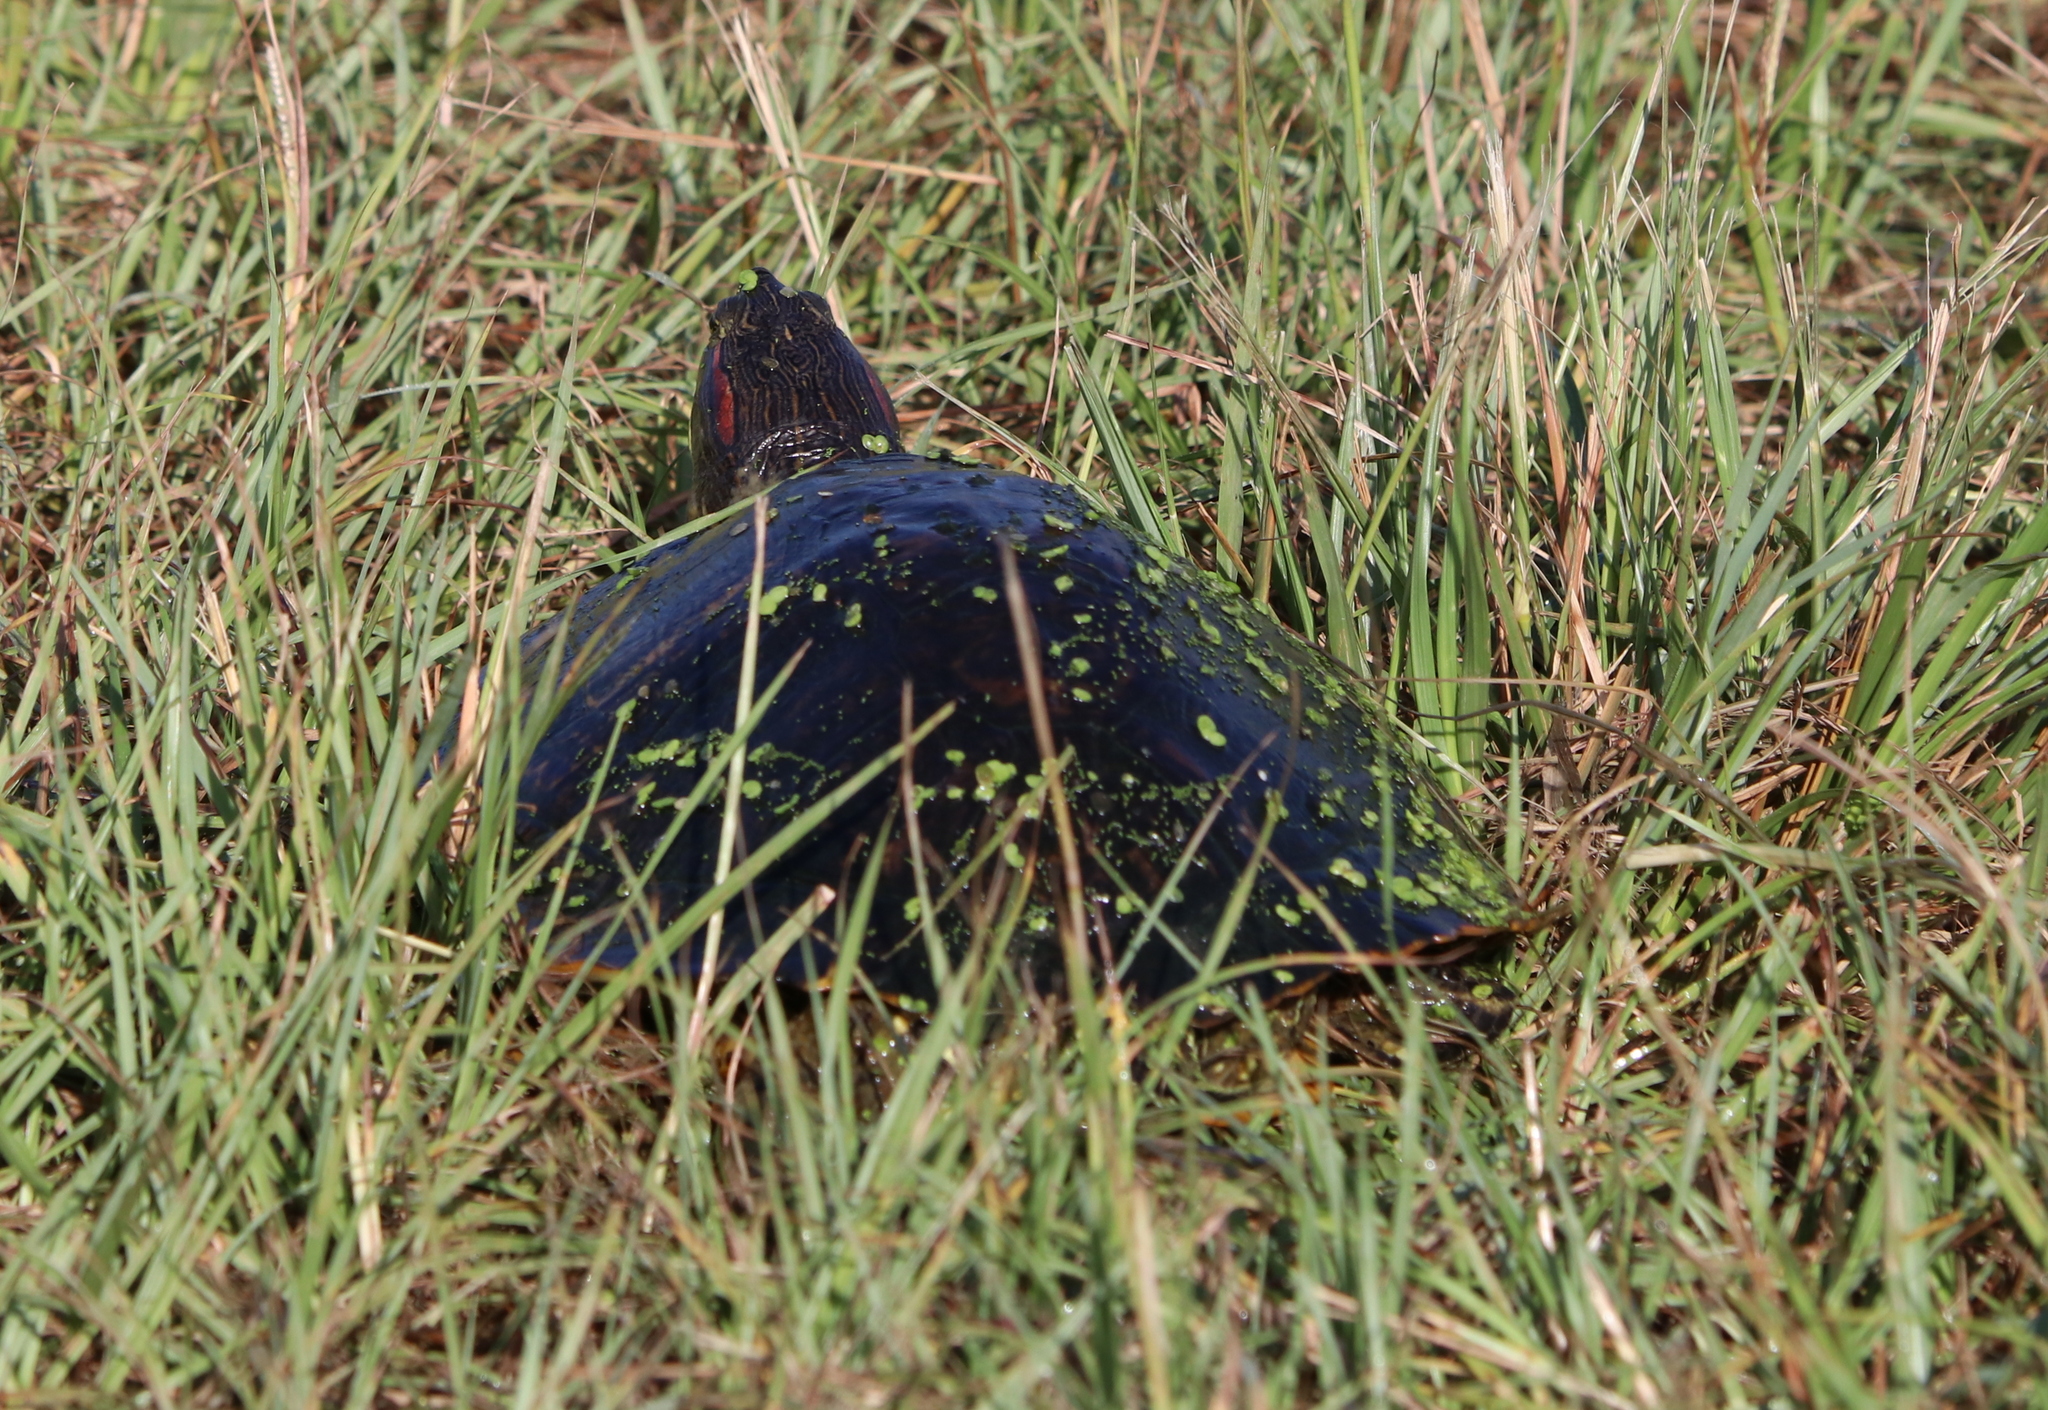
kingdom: Animalia
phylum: Chordata
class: Testudines
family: Emydidae
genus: Trachemys
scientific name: Trachemys scripta
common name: Slider
